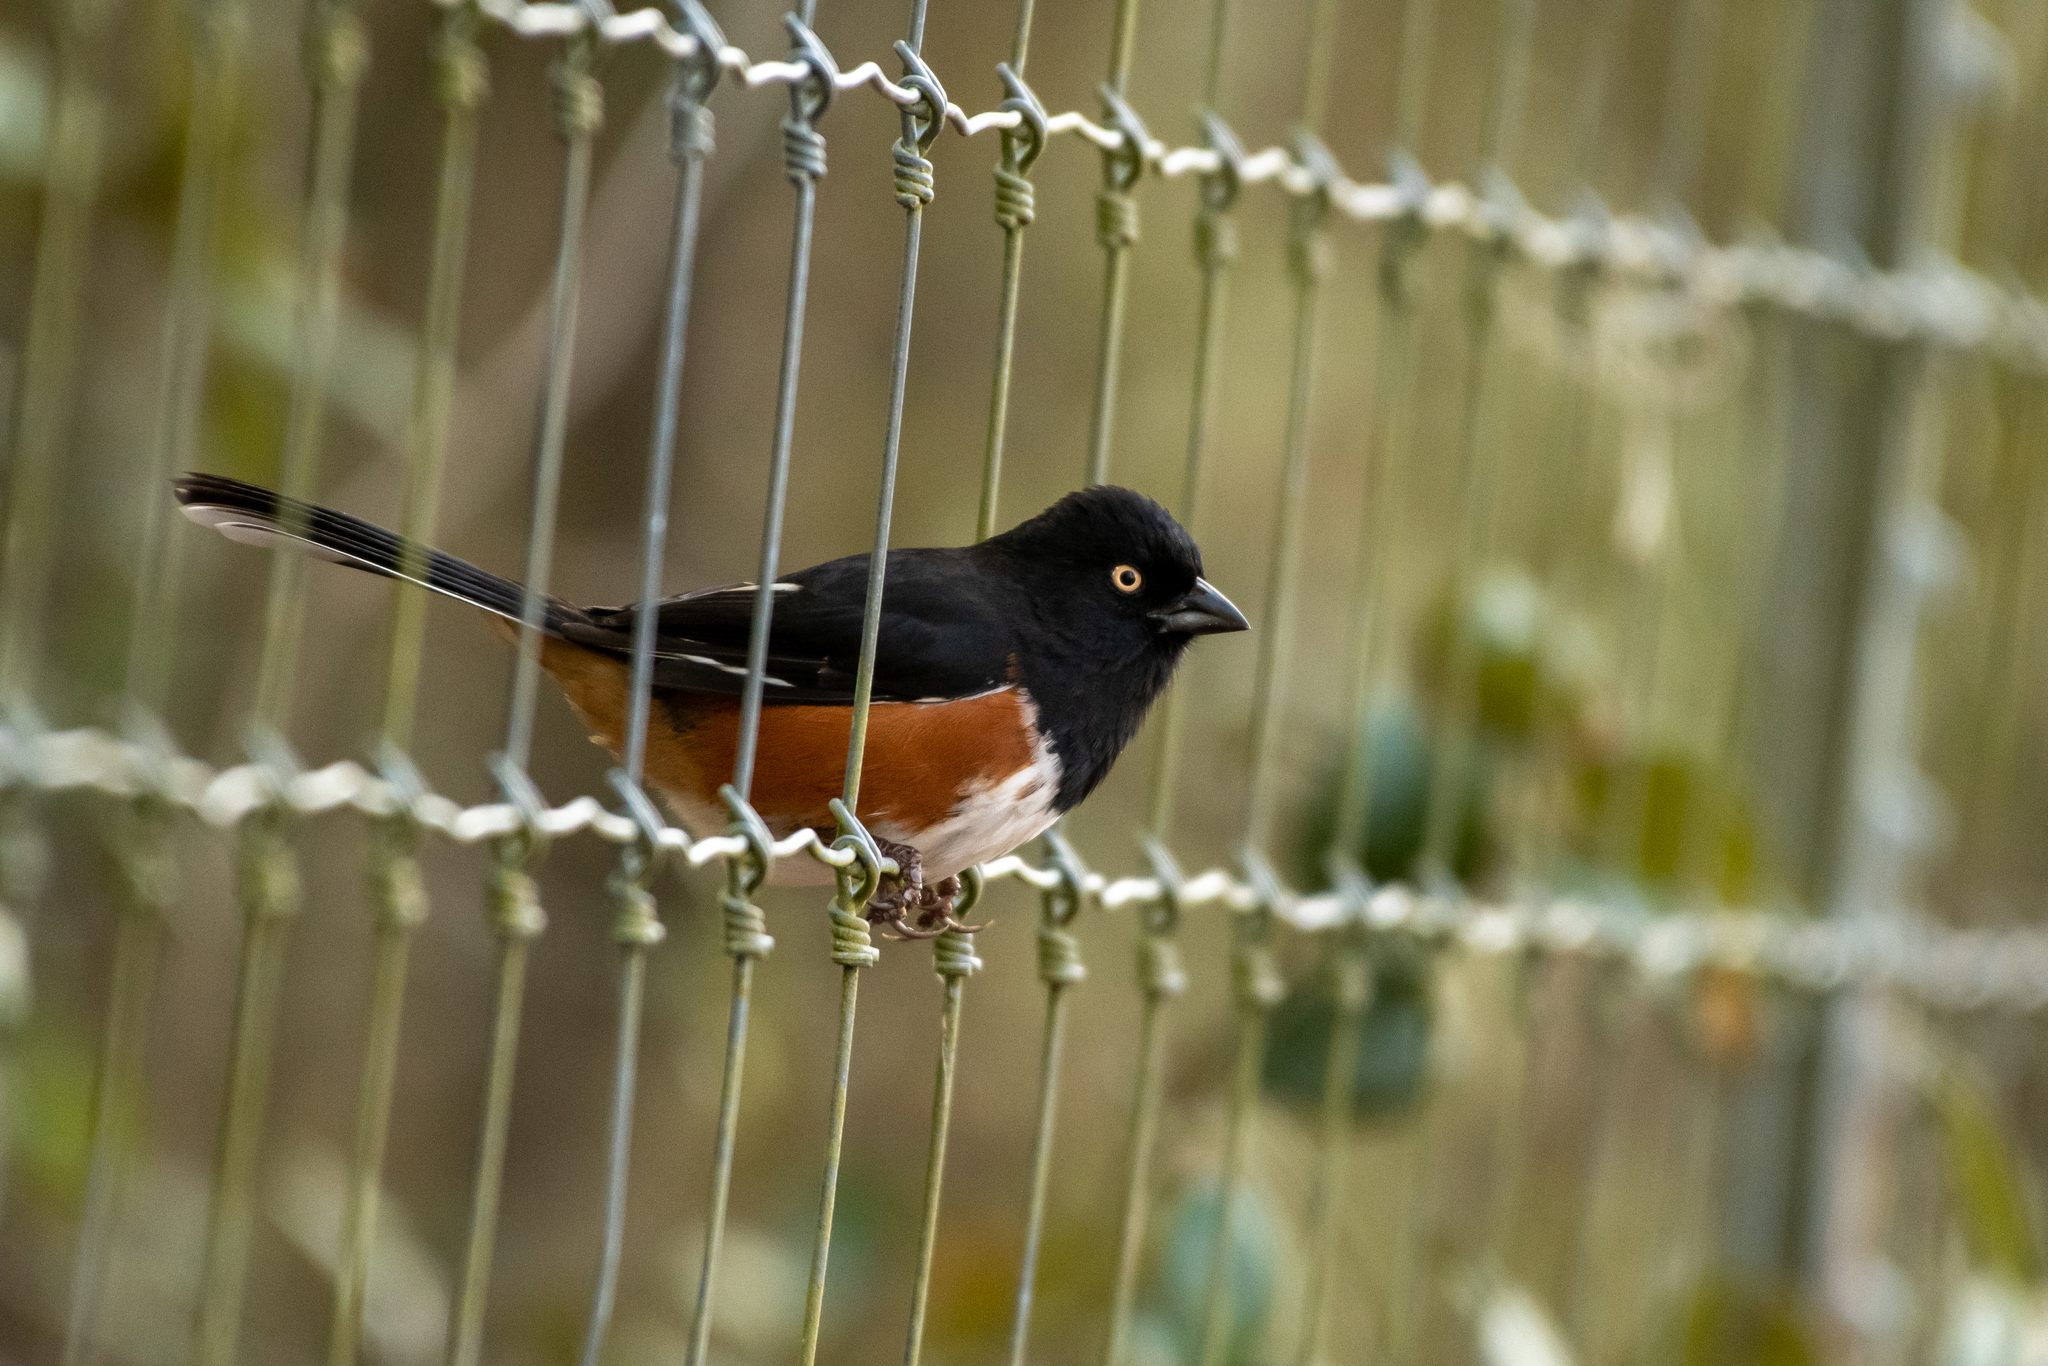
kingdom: Animalia
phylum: Chordata
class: Aves
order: Passeriformes
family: Passerellidae
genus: Pipilo
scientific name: Pipilo erythrophthalmus
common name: Eastern towhee
